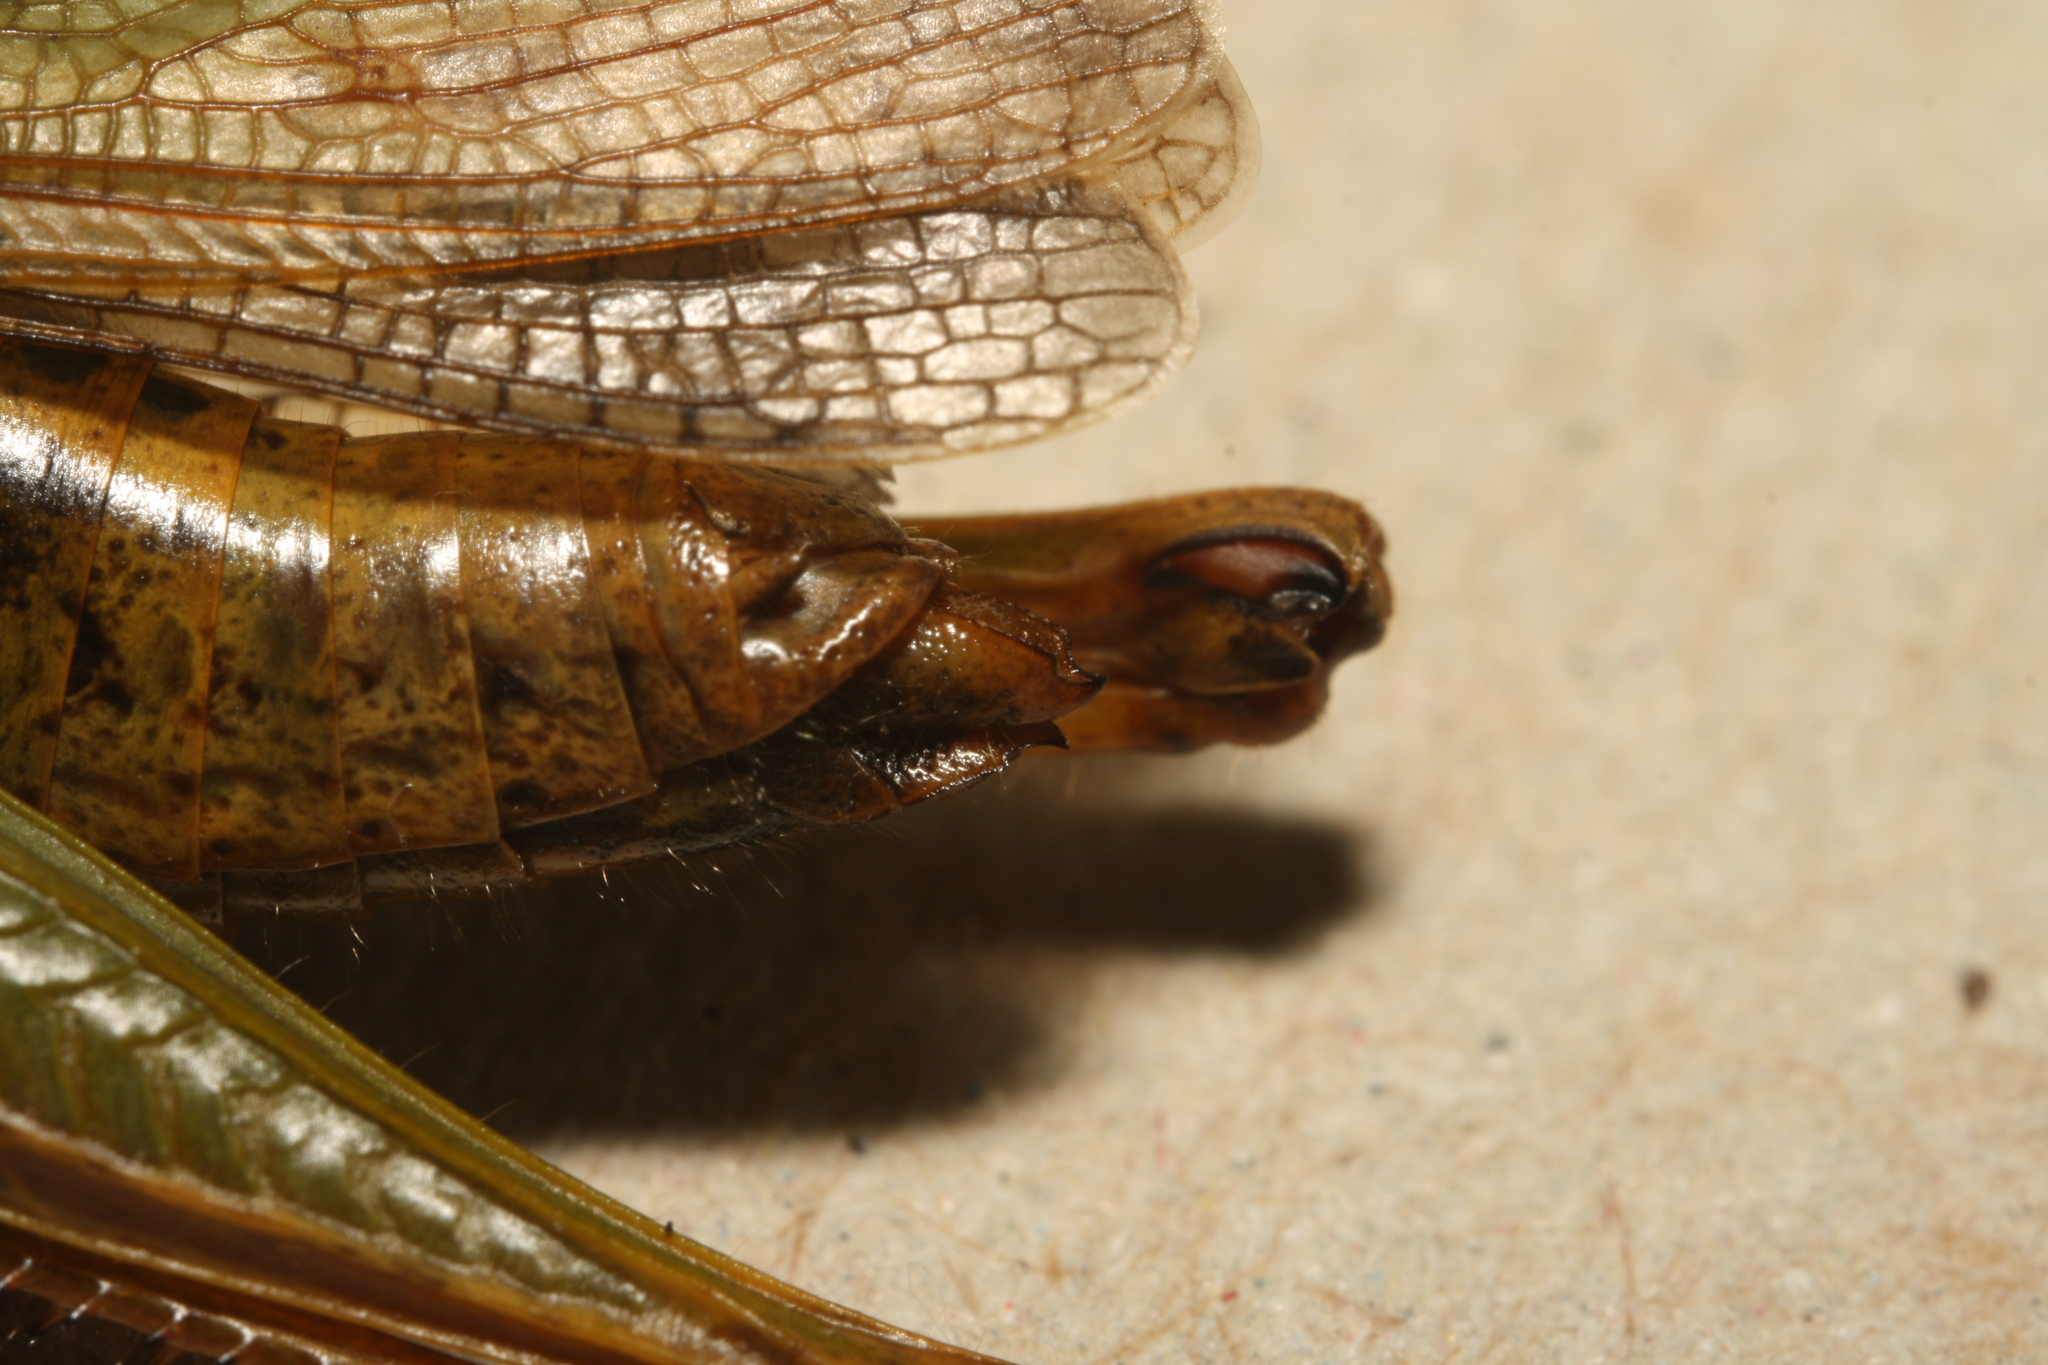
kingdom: Animalia
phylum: Arthropoda
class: Insecta
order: Orthoptera
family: Acrididae
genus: Omocestus
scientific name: Omocestus viridulus
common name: Common green grasshopper
